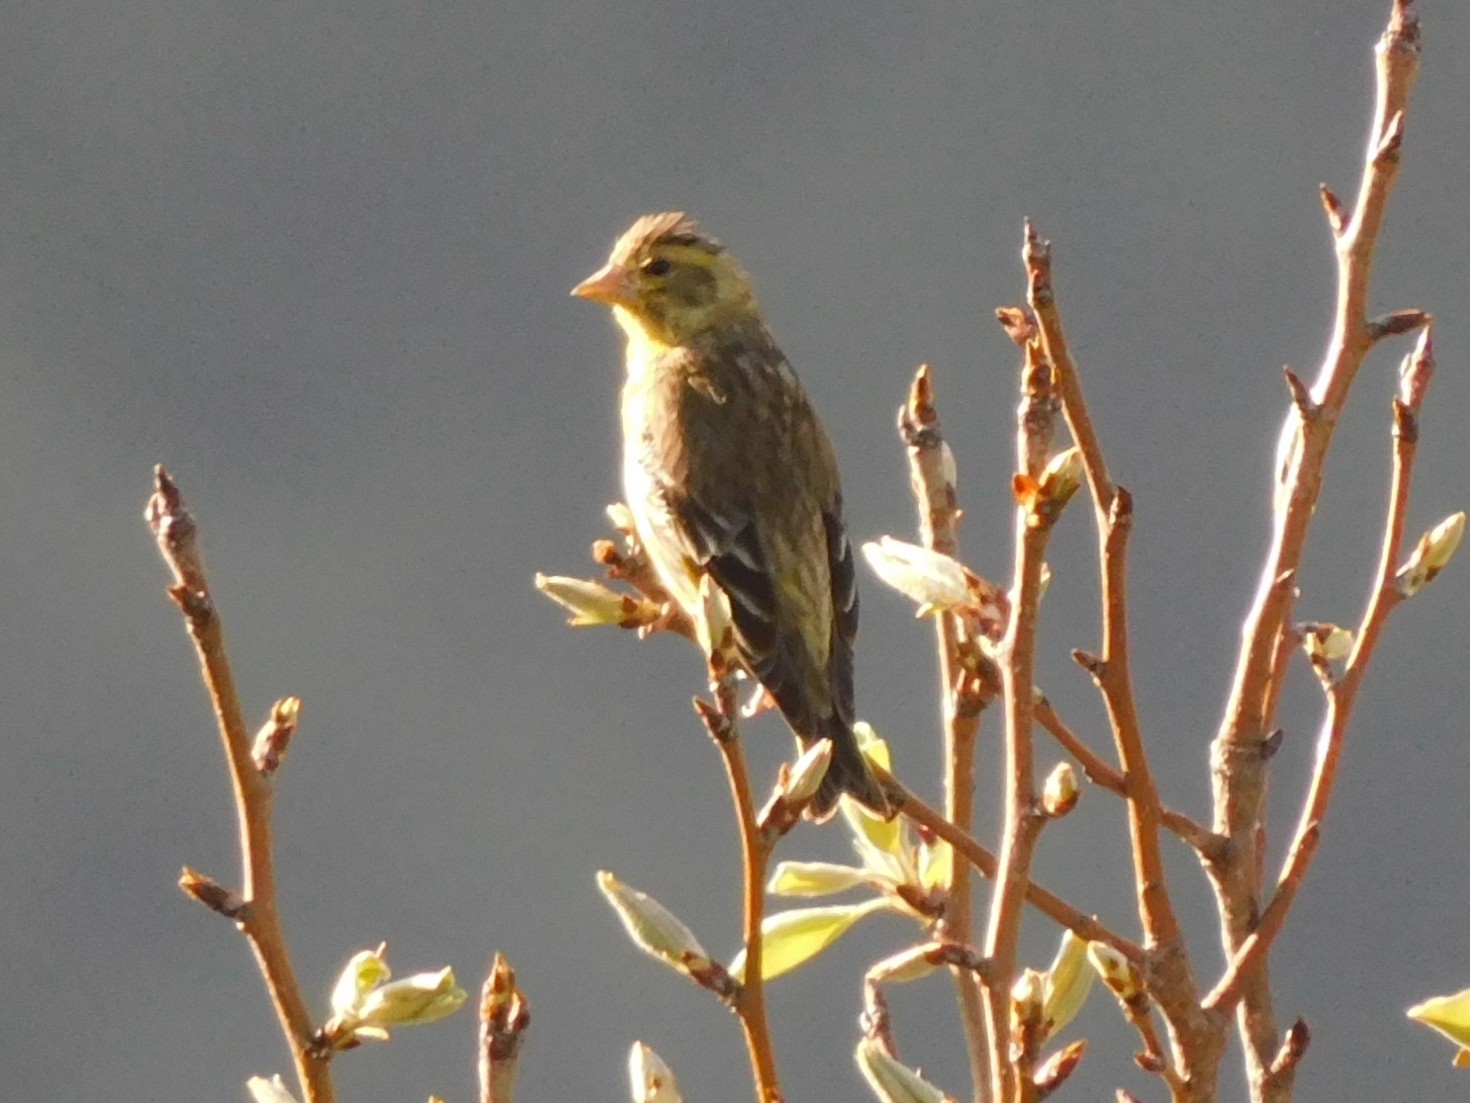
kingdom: Animalia
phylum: Chordata
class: Aves
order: Passeriformes
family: Fringillidae
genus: Chloris
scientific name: Chloris spinoides
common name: Yellow-breasted greenfinch
